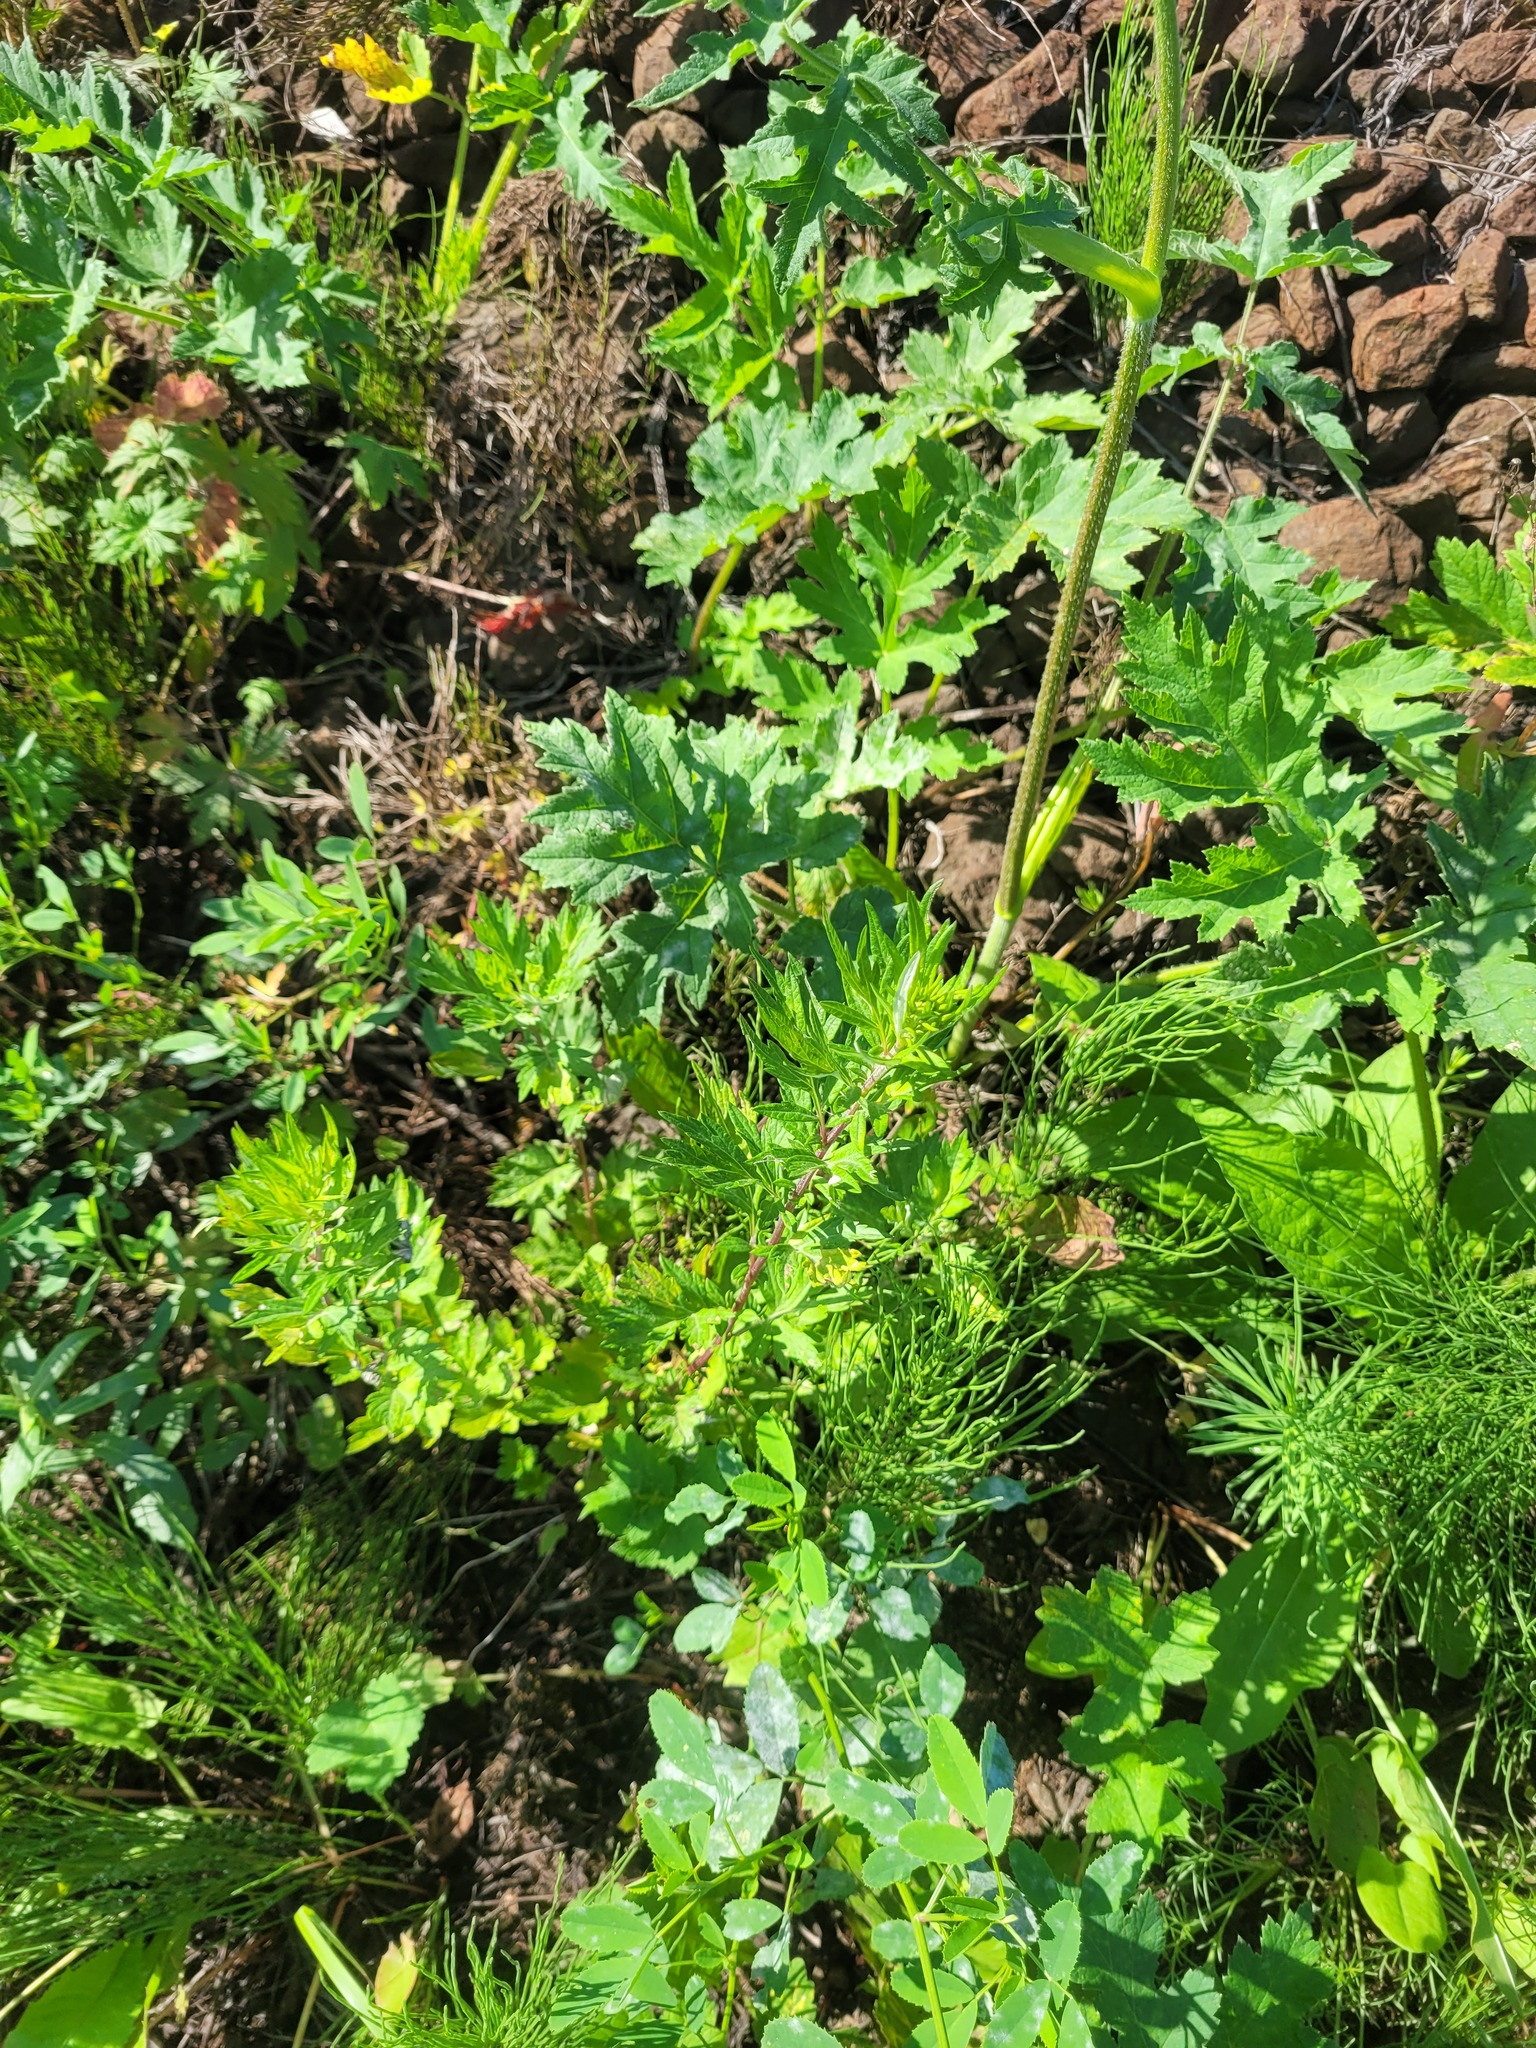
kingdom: Plantae
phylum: Tracheophyta
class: Magnoliopsida
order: Asterales
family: Asteraceae
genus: Artemisia
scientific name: Artemisia vulgaris
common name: Mugwort
